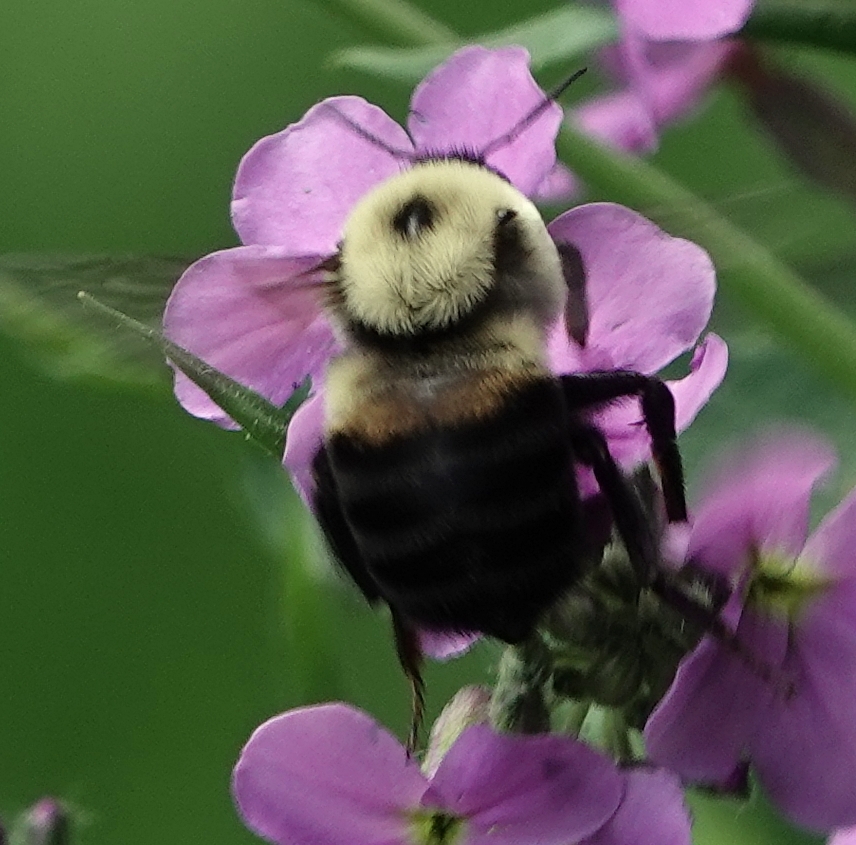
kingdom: Animalia
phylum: Arthropoda
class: Insecta
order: Hymenoptera
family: Apidae
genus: Bombus
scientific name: Bombus griseocollis
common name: Brown-belted bumble bee
